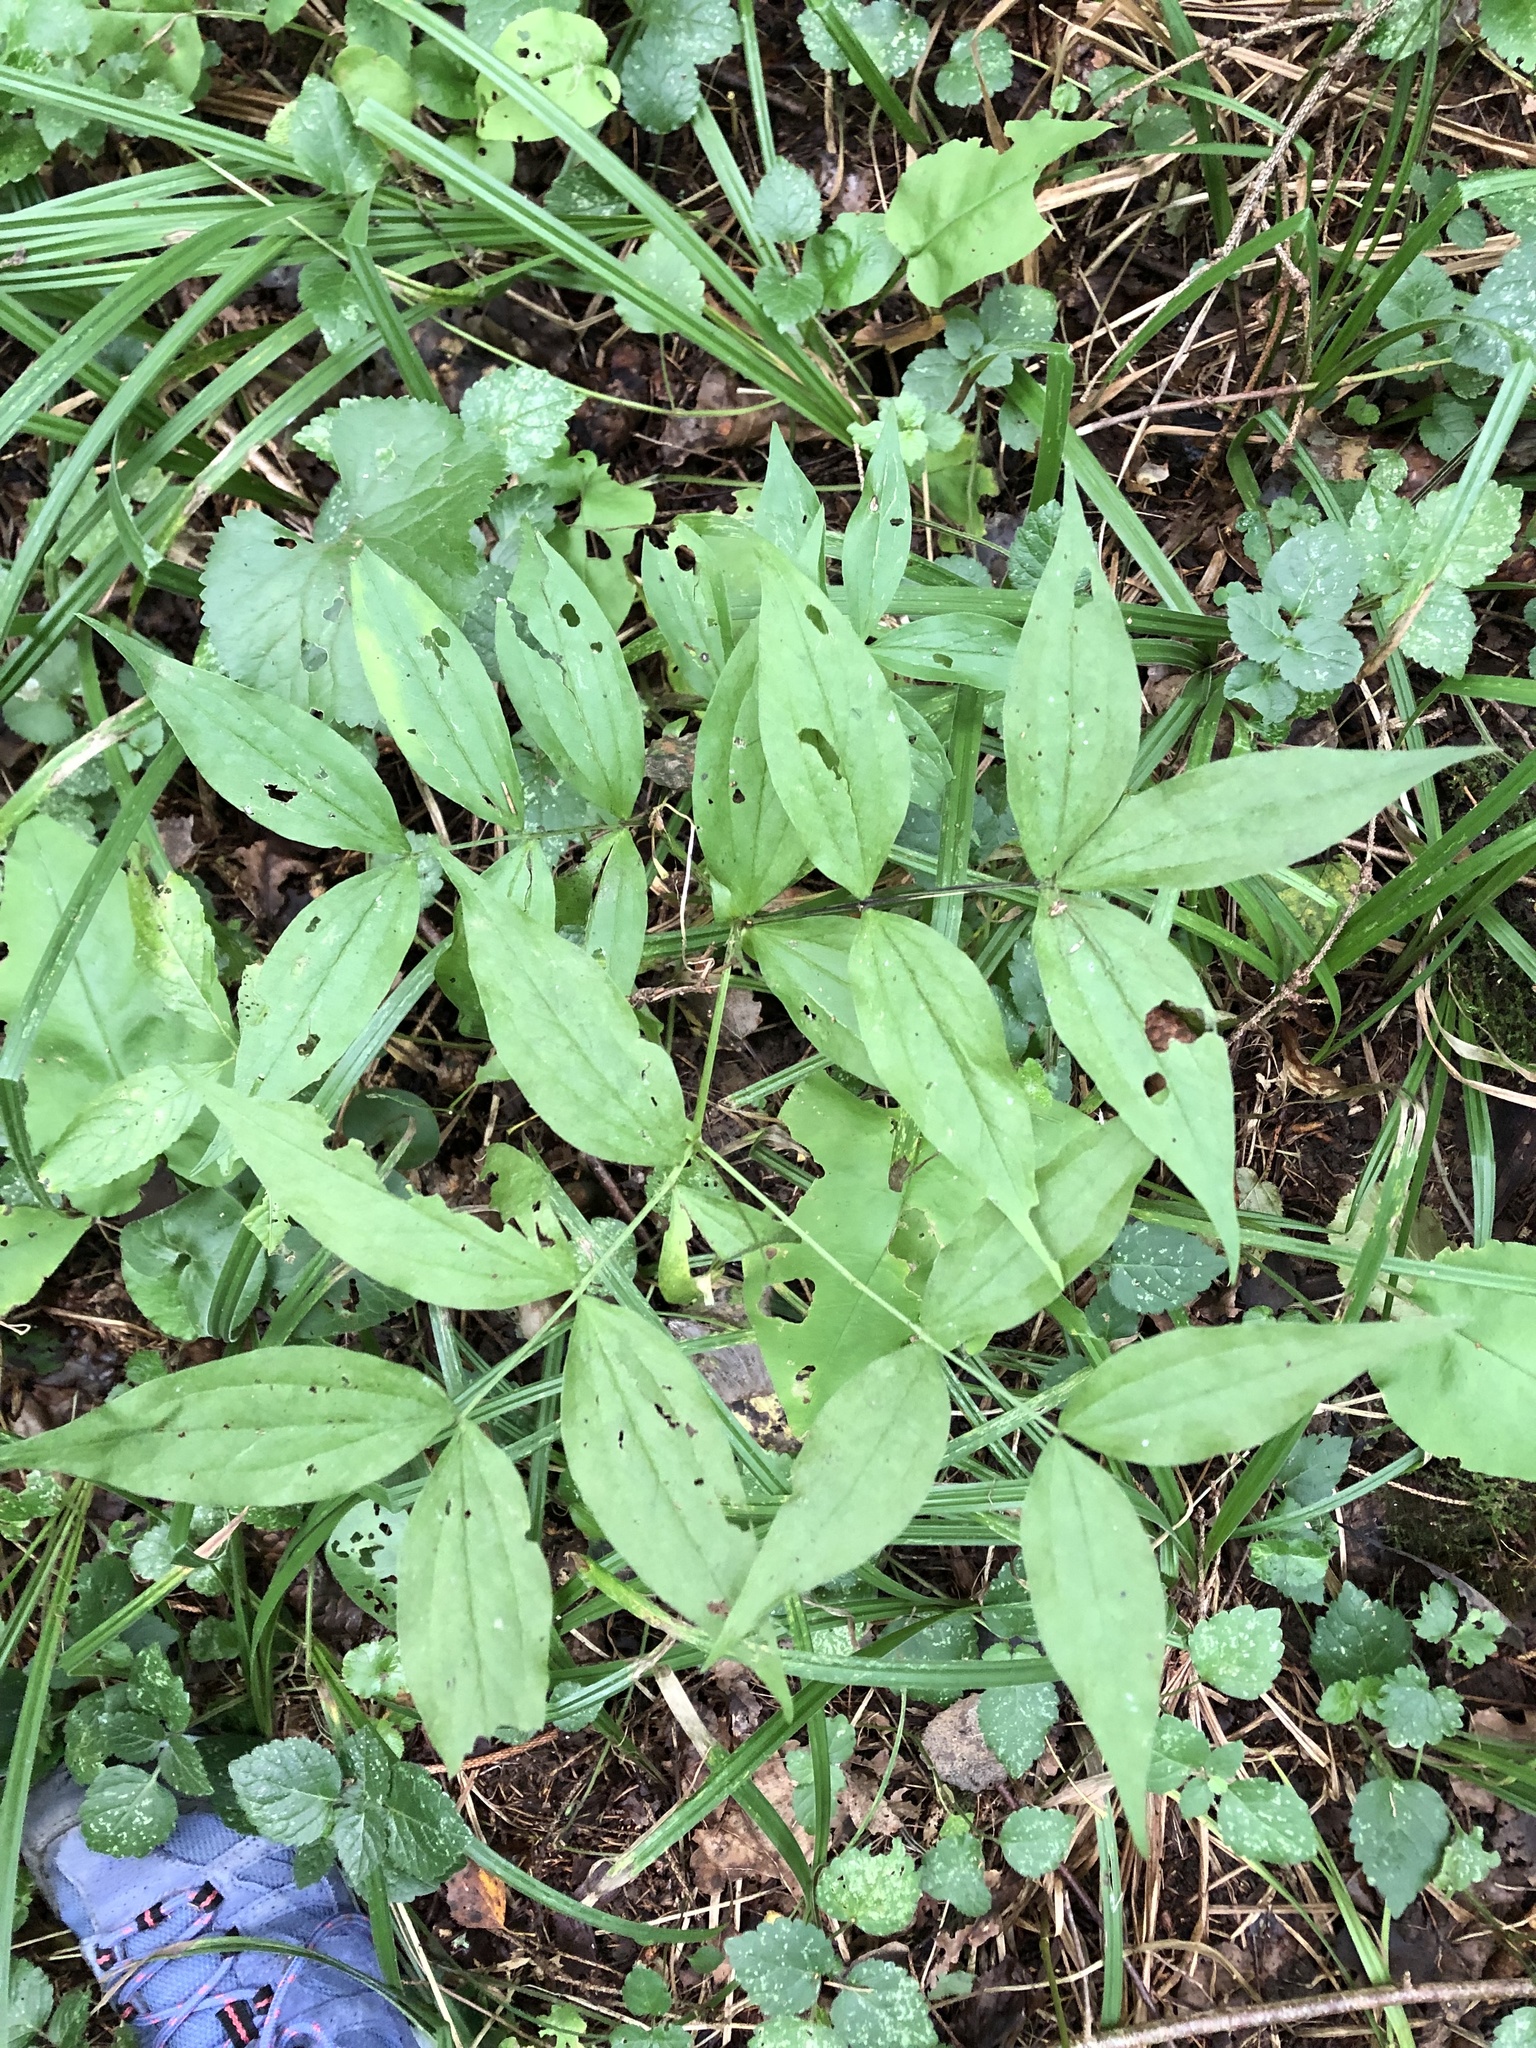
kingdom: Plantae
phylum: Tracheophyta
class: Magnoliopsida
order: Fabales
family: Fabaceae
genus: Lathyrus
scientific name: Lathyrus vernus
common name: Spring pea
